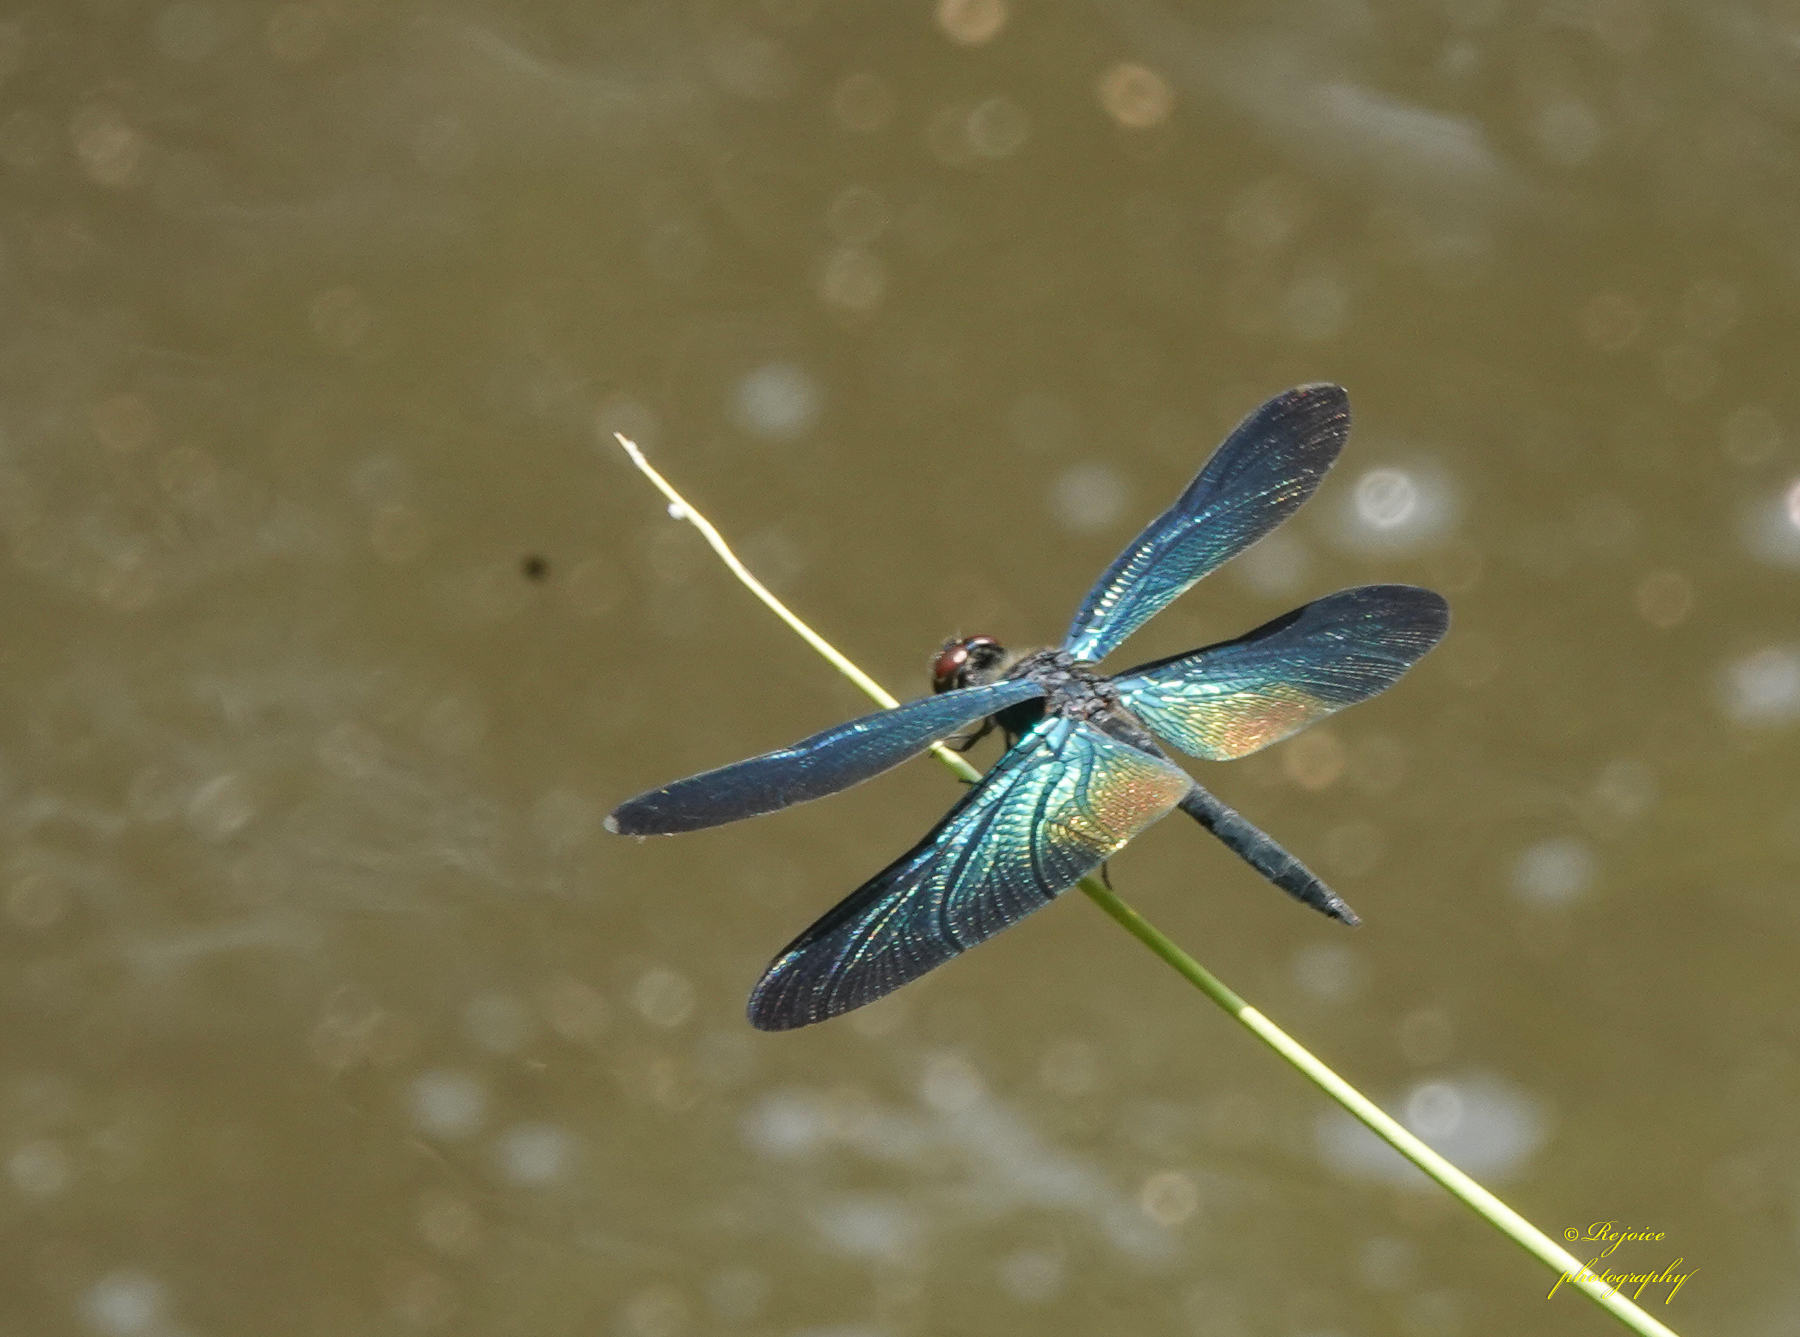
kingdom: Animalia
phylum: Arthropoda
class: Insecta
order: Odonata
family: Libellulidae
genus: Rhyothemis
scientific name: Rhyothemis plutonia
